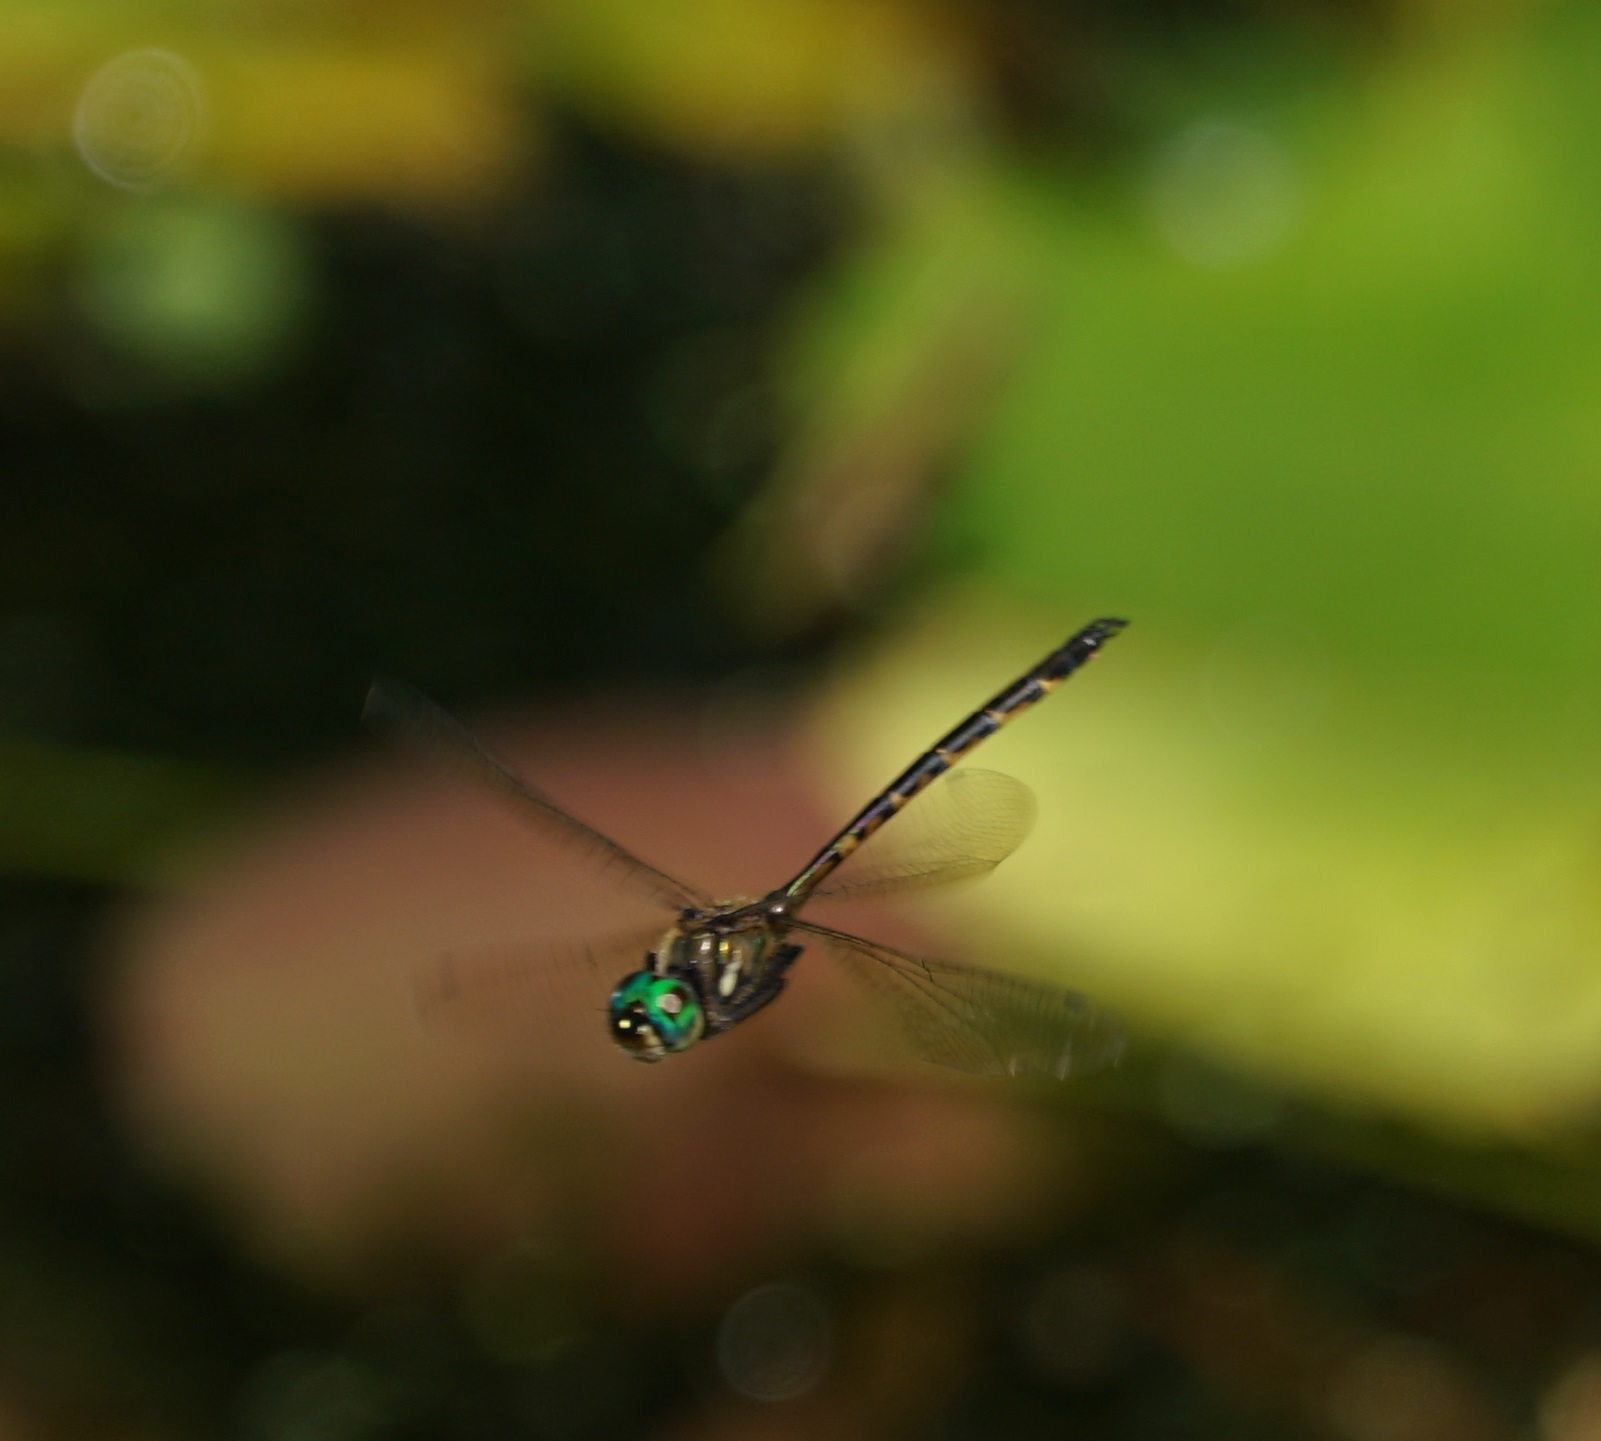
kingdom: Animalia
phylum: Arthropoda
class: Insecta
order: Odonata
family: Corduliidae
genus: Hemicordulia
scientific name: Hemicordulia australiae
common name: Sentry dragonfly
